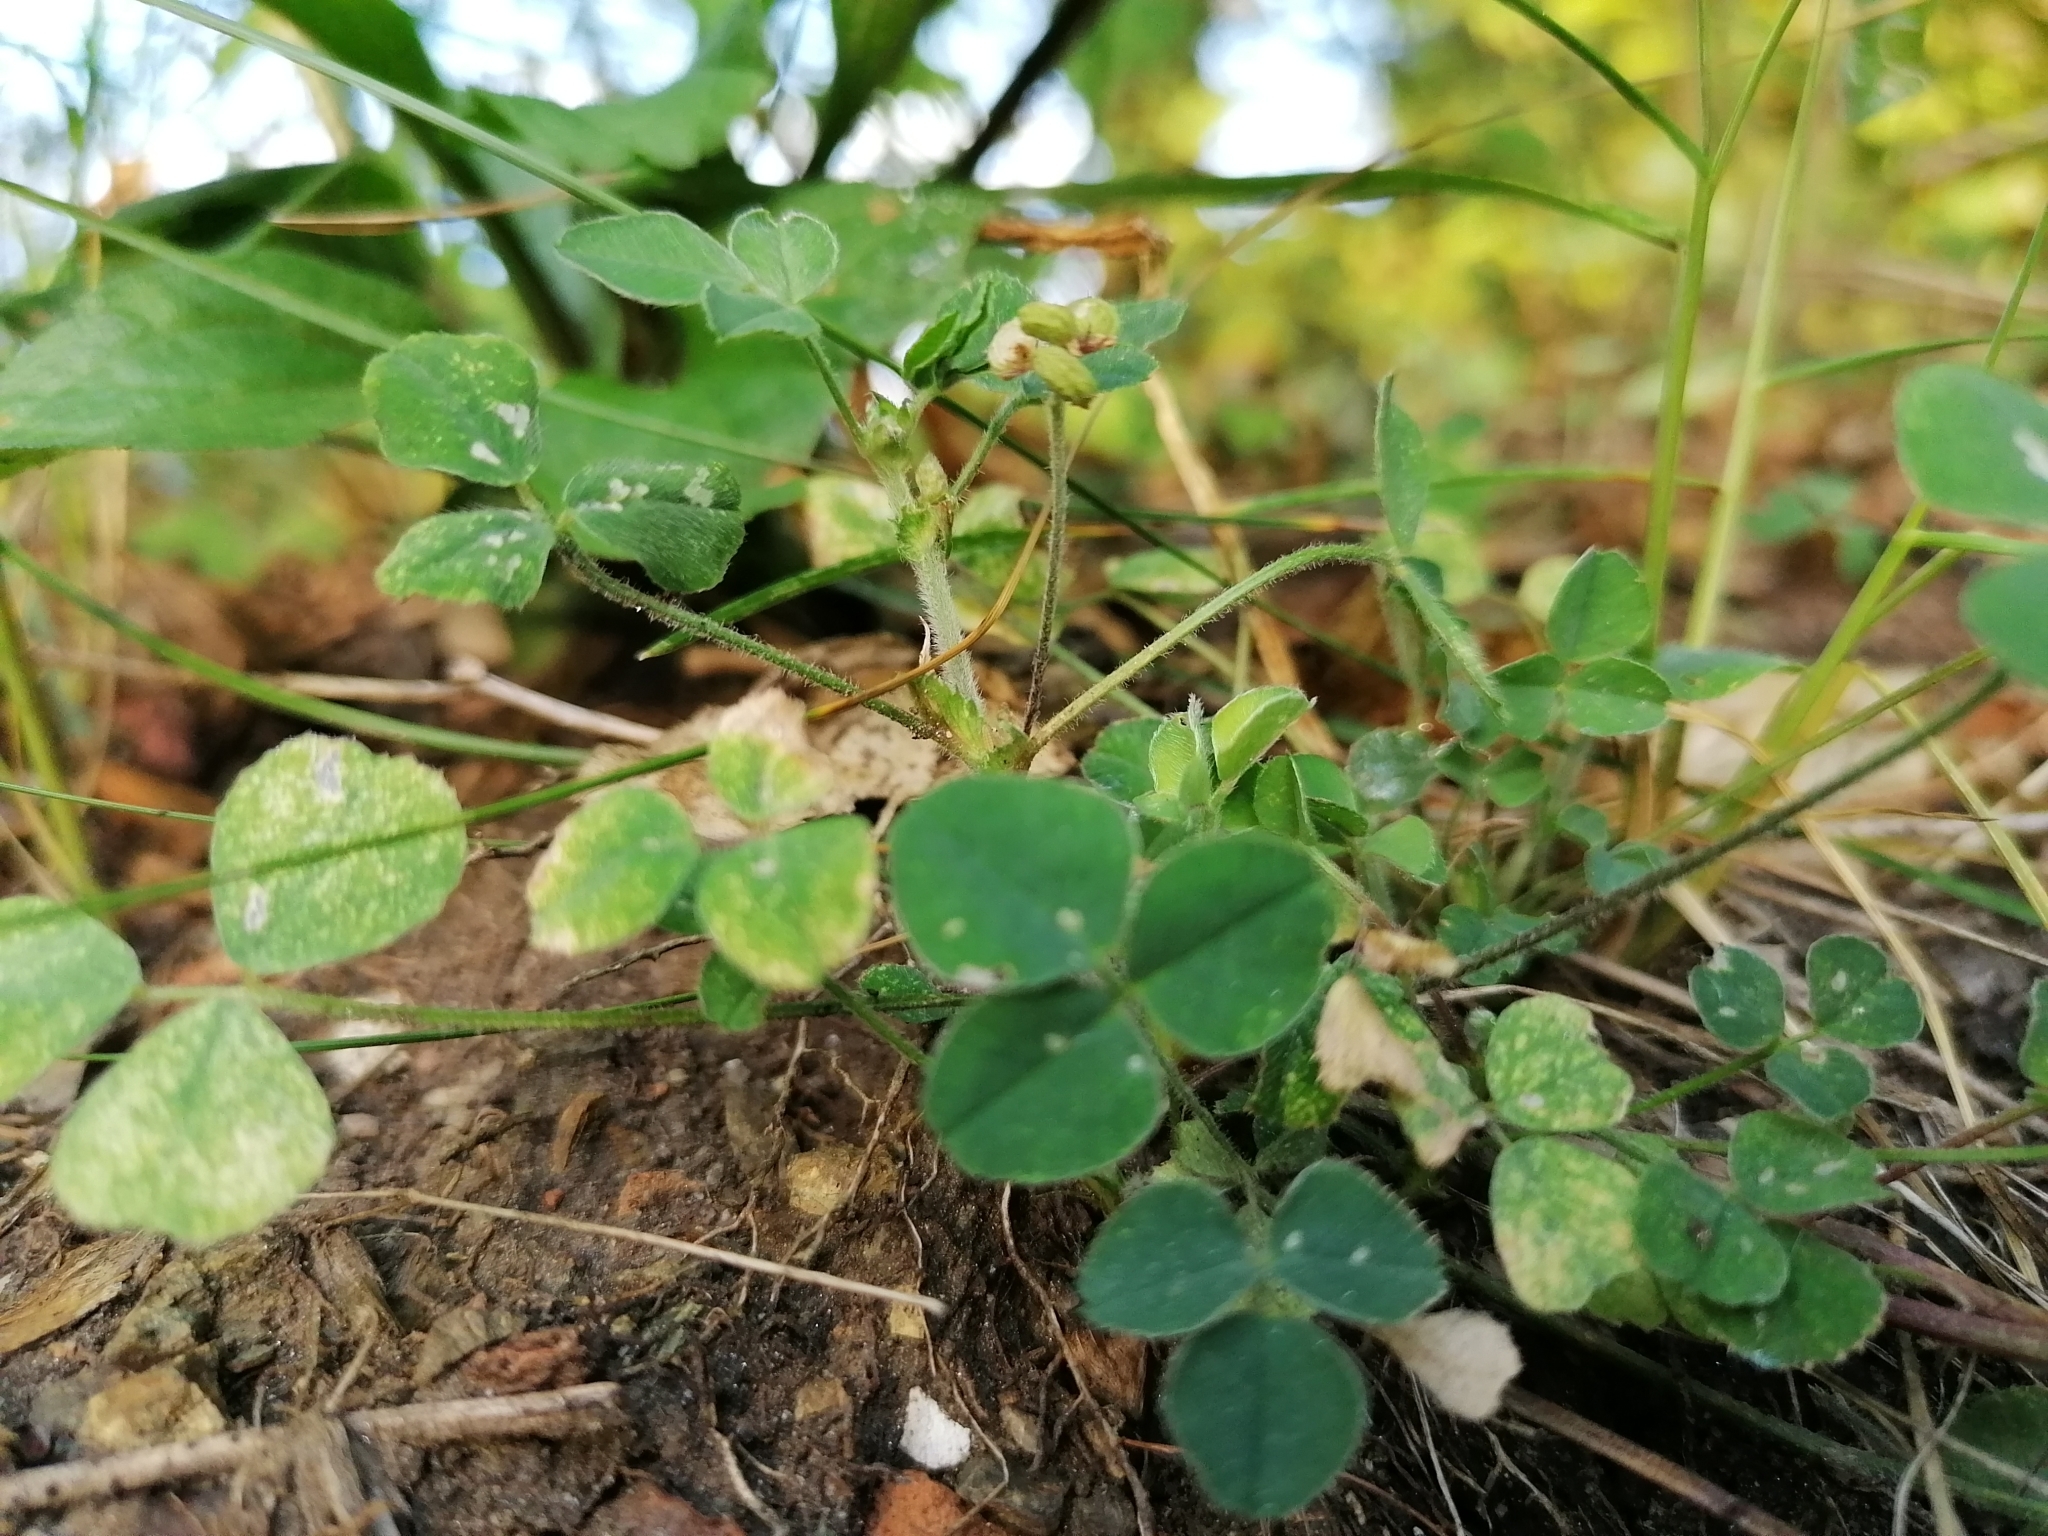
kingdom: Plantae
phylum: Tracheophyta
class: Magnoliopsida
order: Fabales
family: Fabaceae
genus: Medicago
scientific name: Medicago lupulina
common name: Black medick
